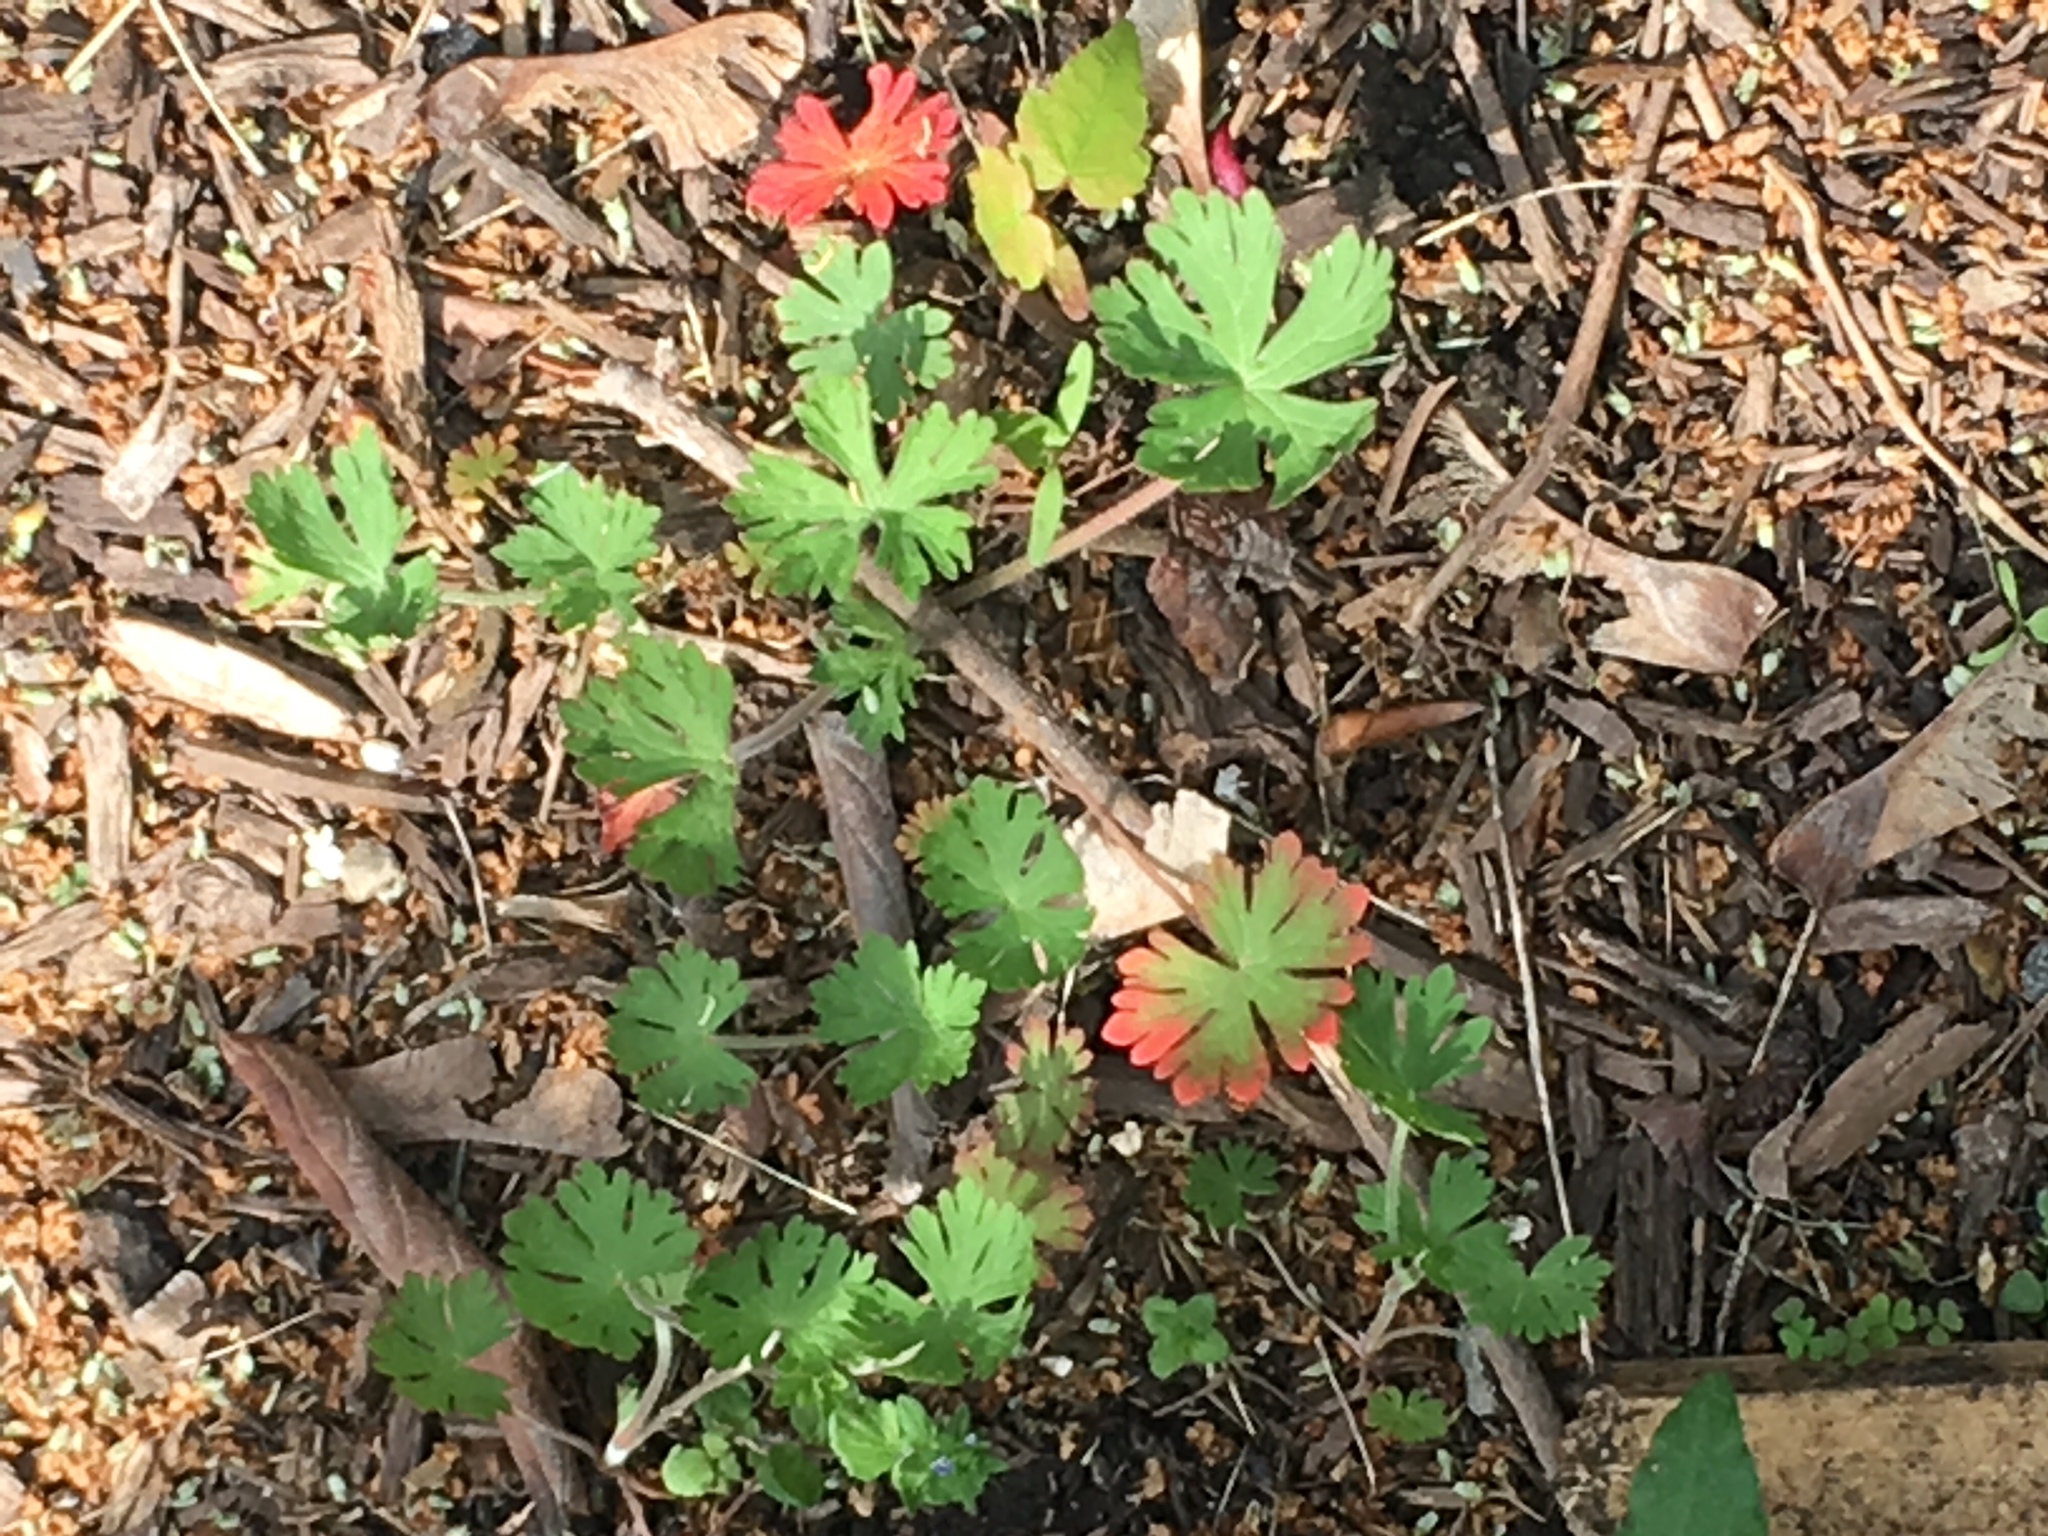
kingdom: Plantae
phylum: Tracheophyta
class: Magnoliopsida
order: Geraniales
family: Geraniaceae
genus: Geranium
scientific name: Geranium carolinianum
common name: Carolina crane's-bill
